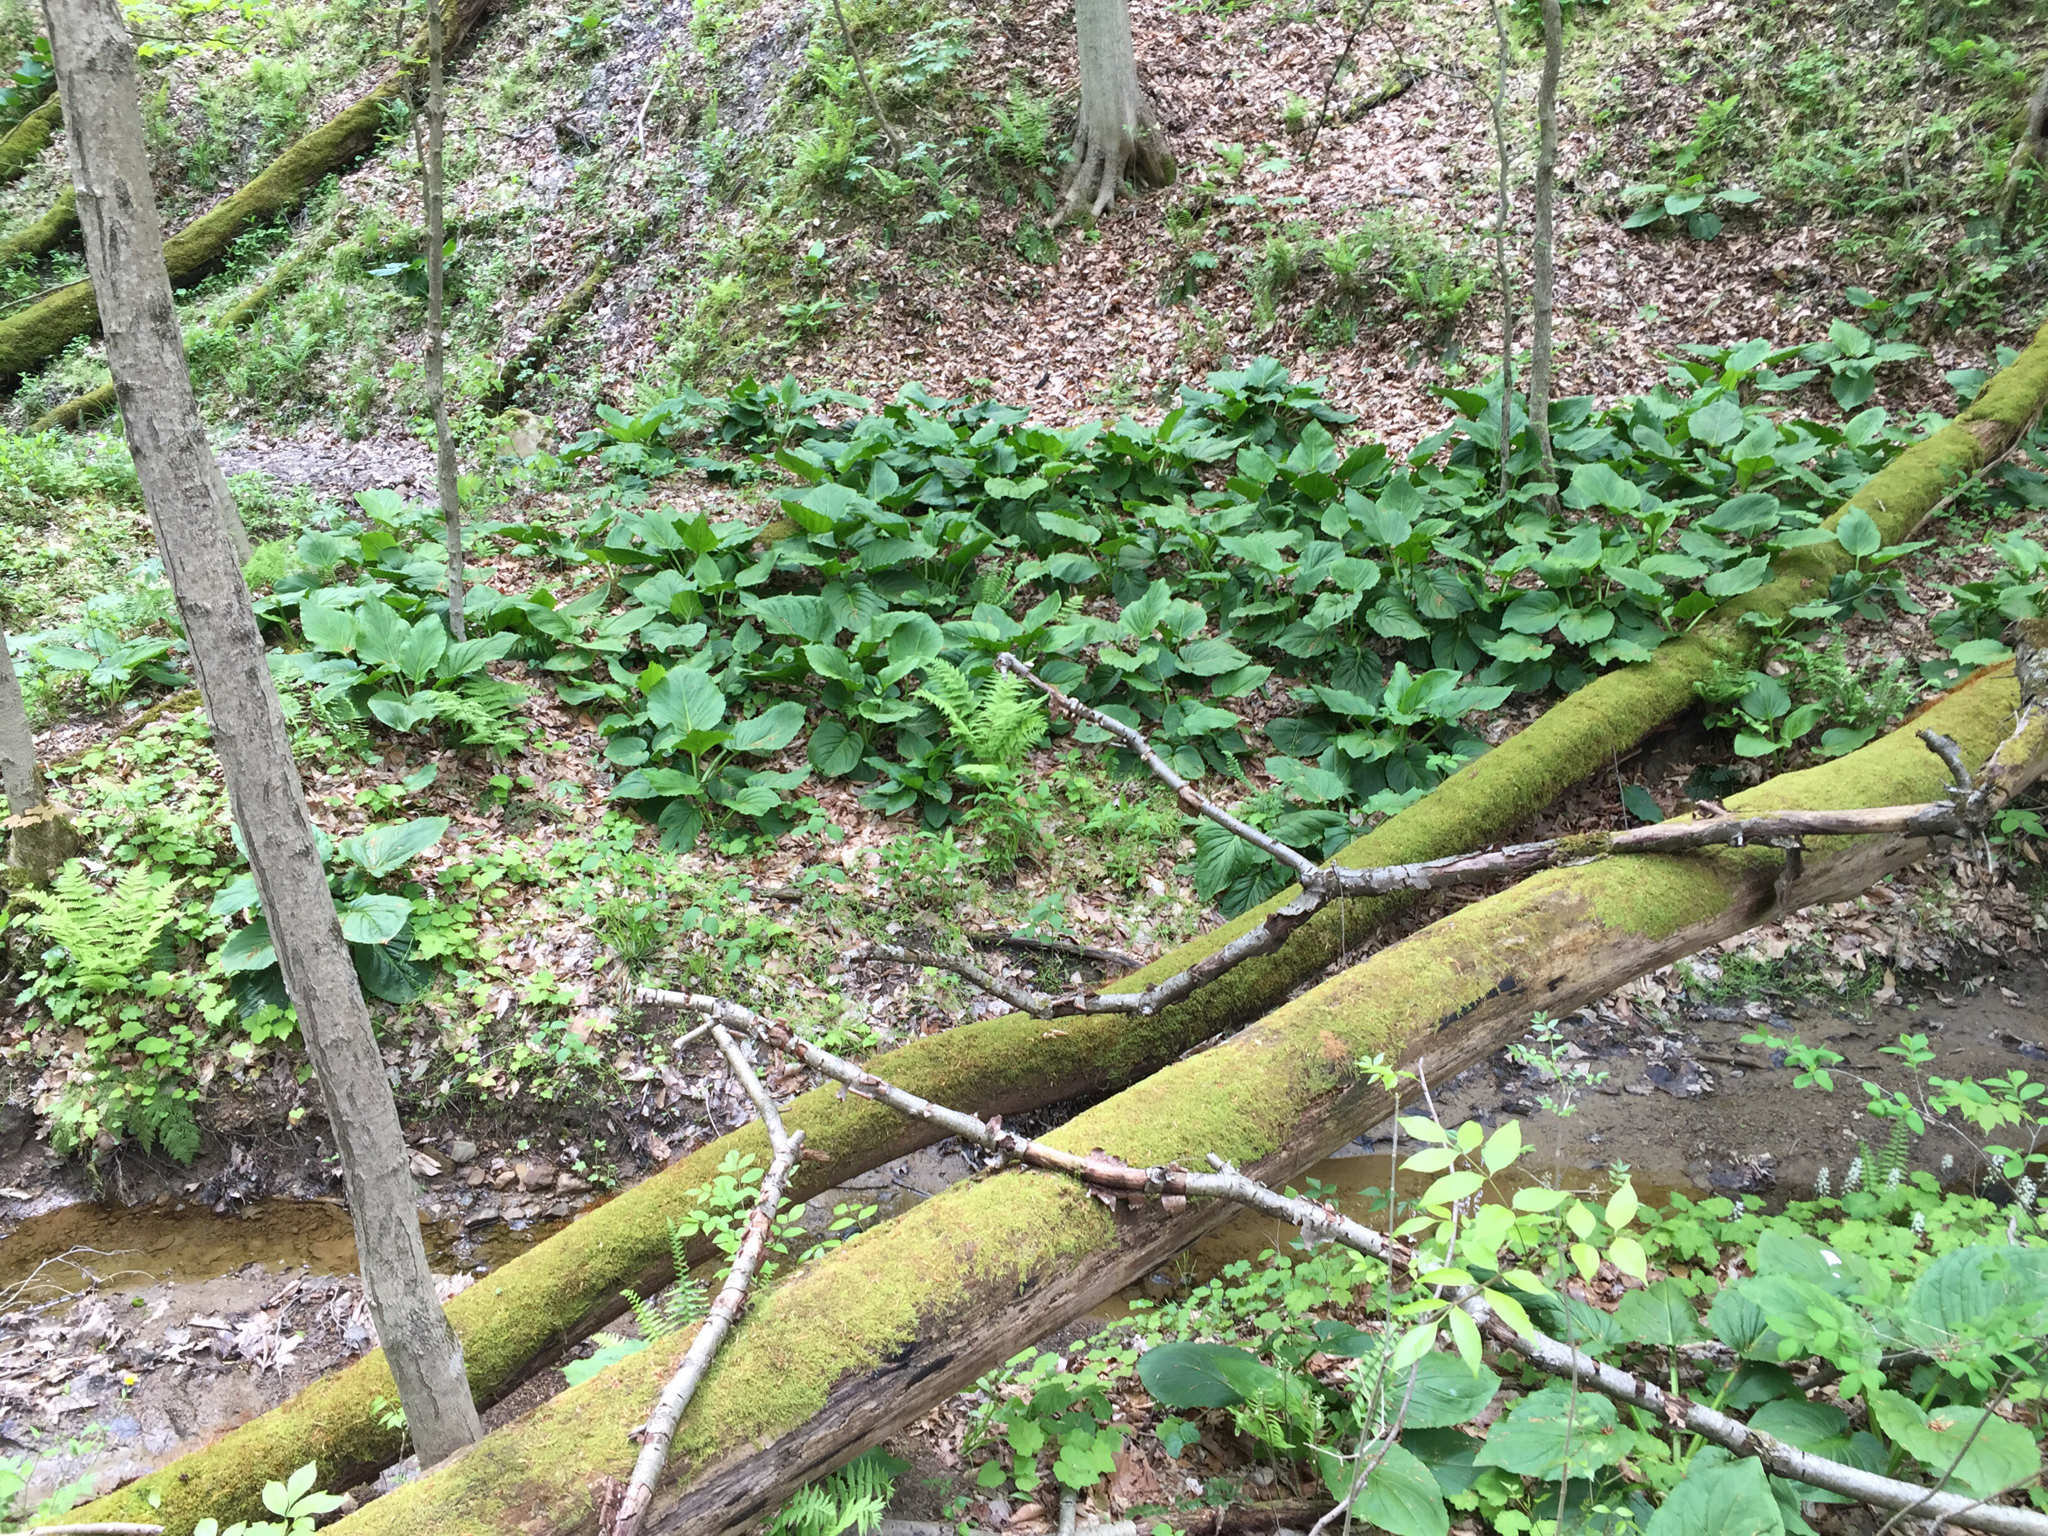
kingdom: Plantae
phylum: Tracheophyta
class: Liliopsida
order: Alismatales
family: Araceae
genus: Symplocarpus
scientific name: Symplocarpus foetidus
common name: Eastern skunk cabbage
